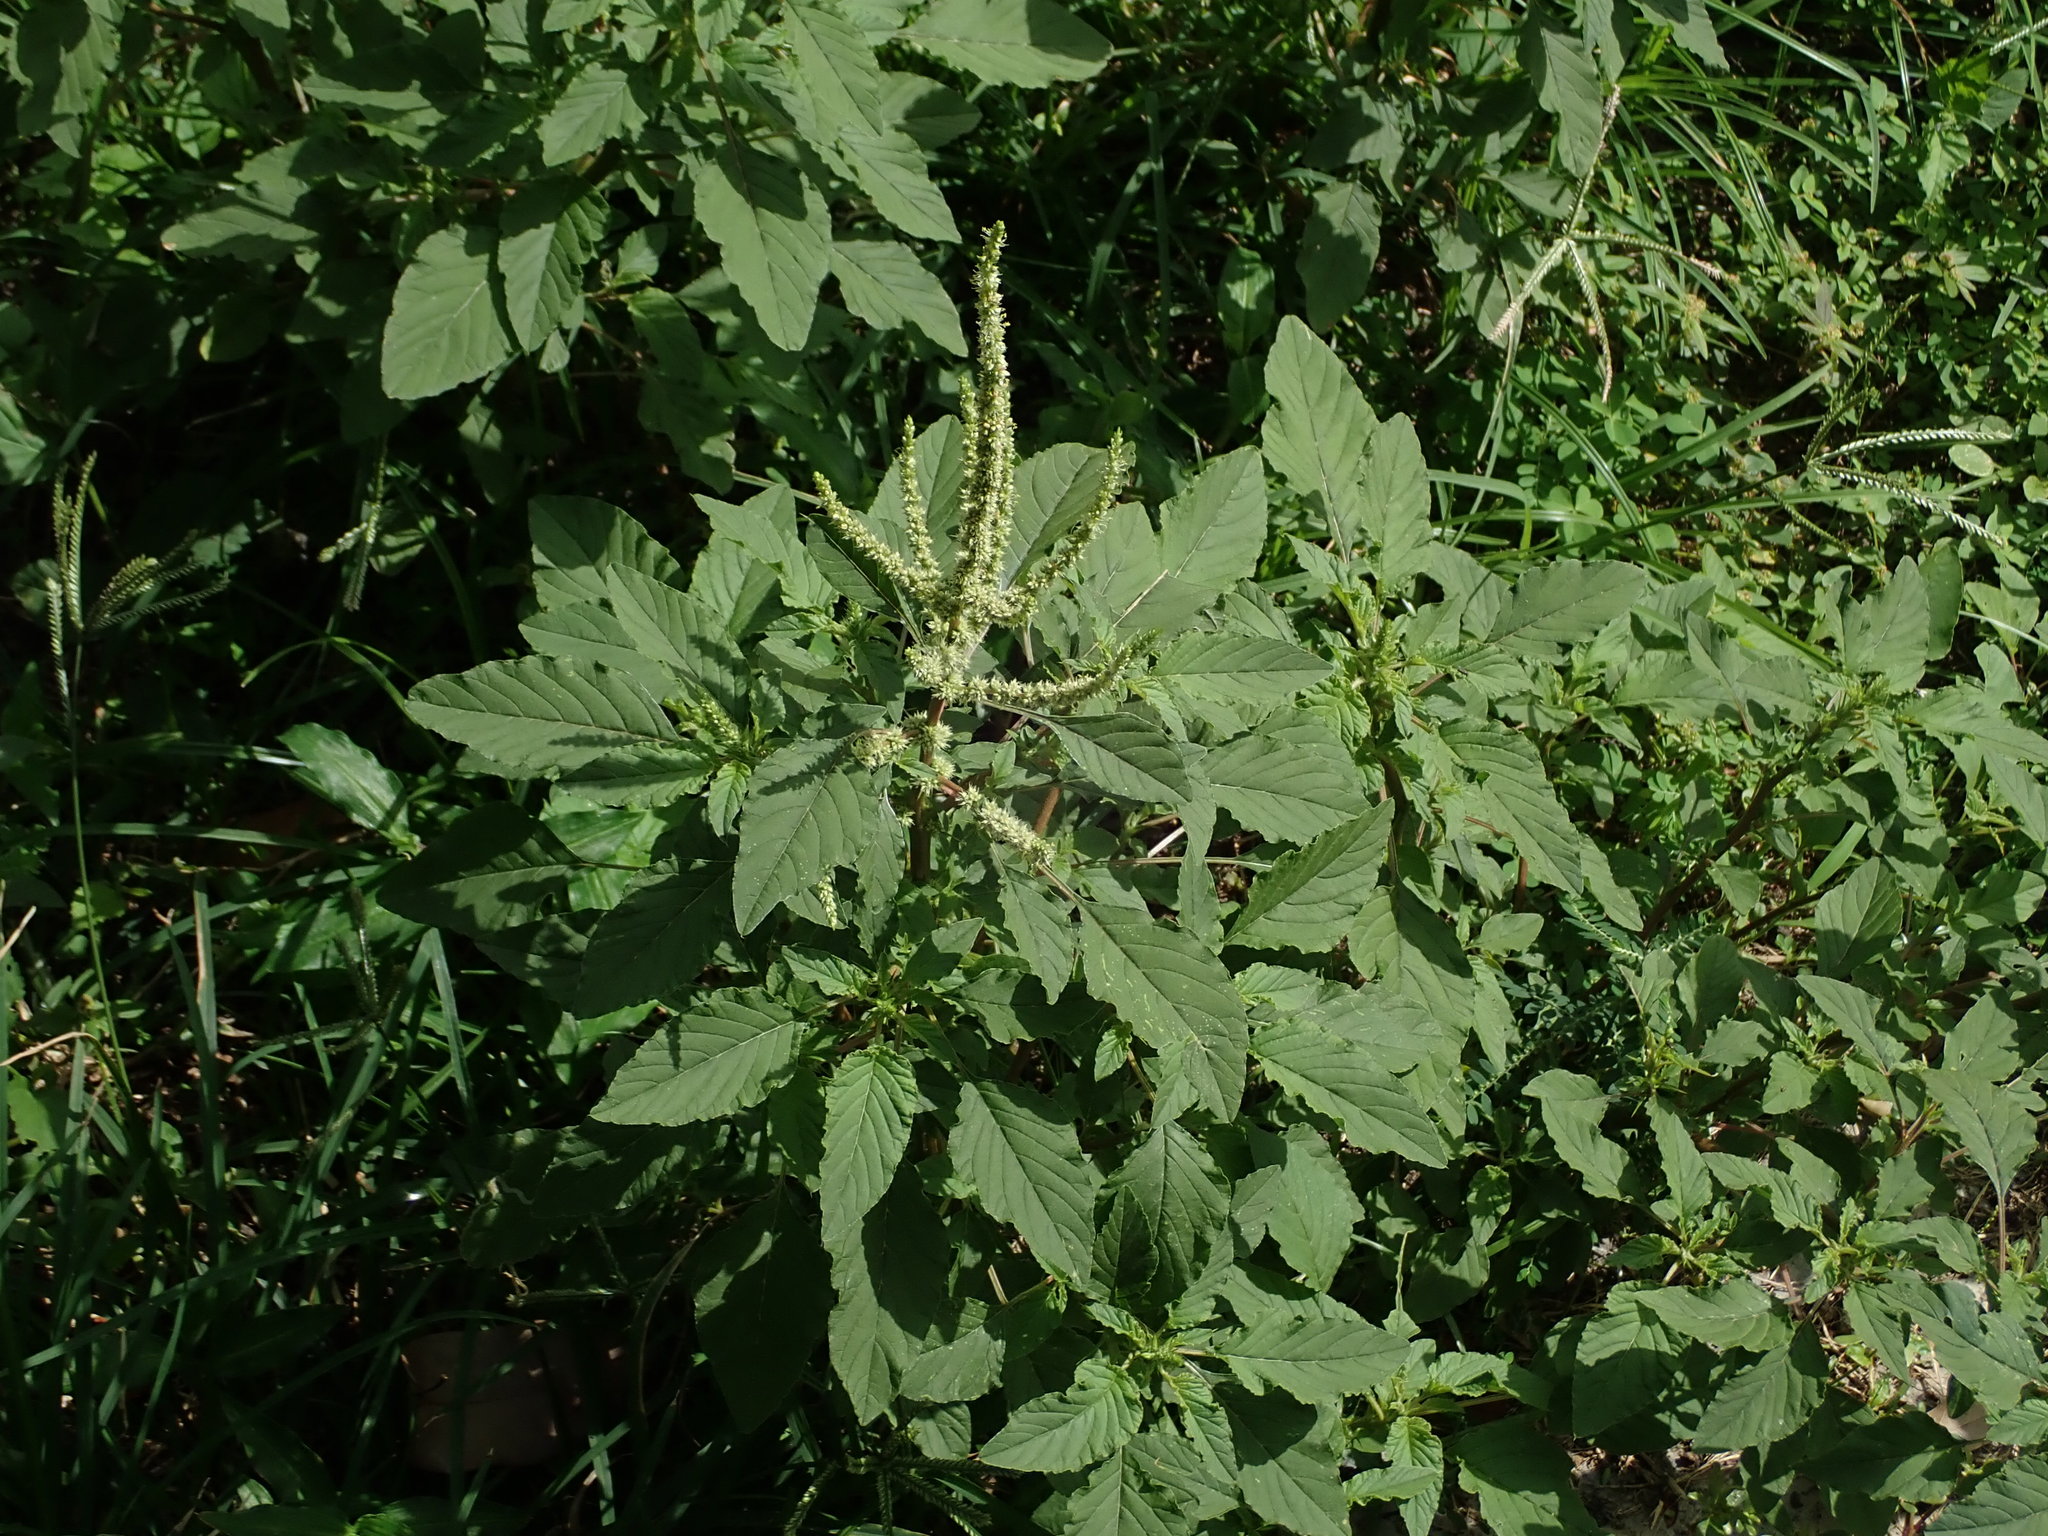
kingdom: Plantae
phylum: Tracheophyta
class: Magnoliopsida
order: Caryophyllales
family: Amaranthaceae
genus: Amaranthus
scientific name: Amaranthus viridis
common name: Slender amaranth
